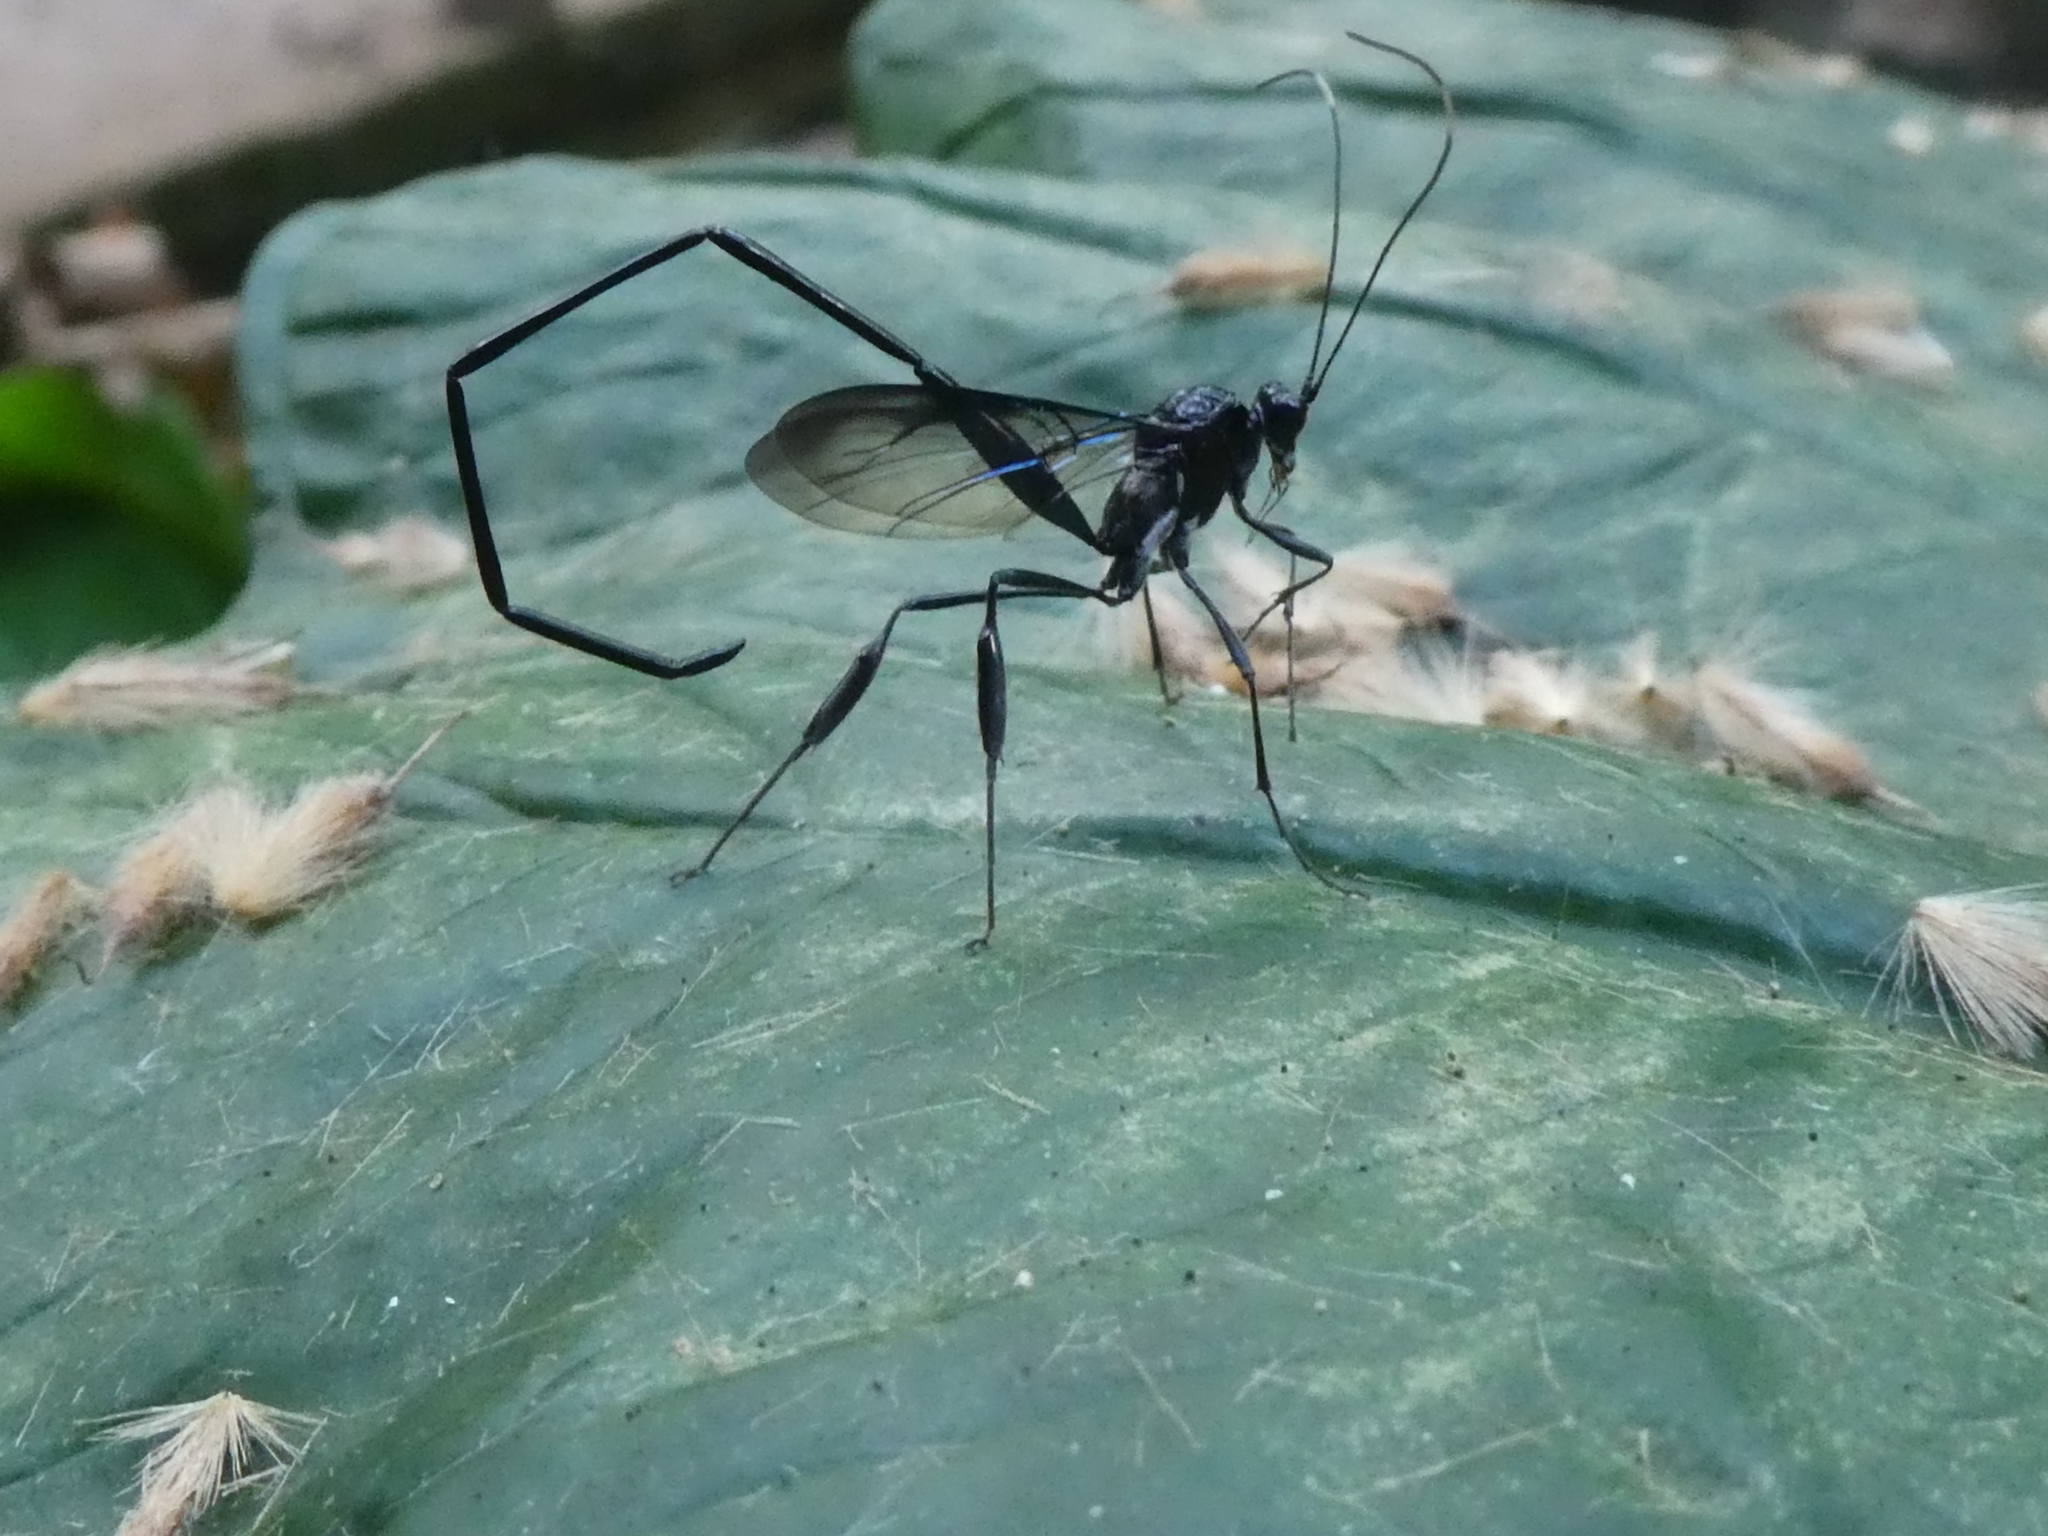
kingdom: Animalia
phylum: Arthropoda
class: Insecta
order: Hymenoptera
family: Pelecinidae
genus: Pelecinus
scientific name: Pelecinus polyturator
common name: American pelecinid wasp
